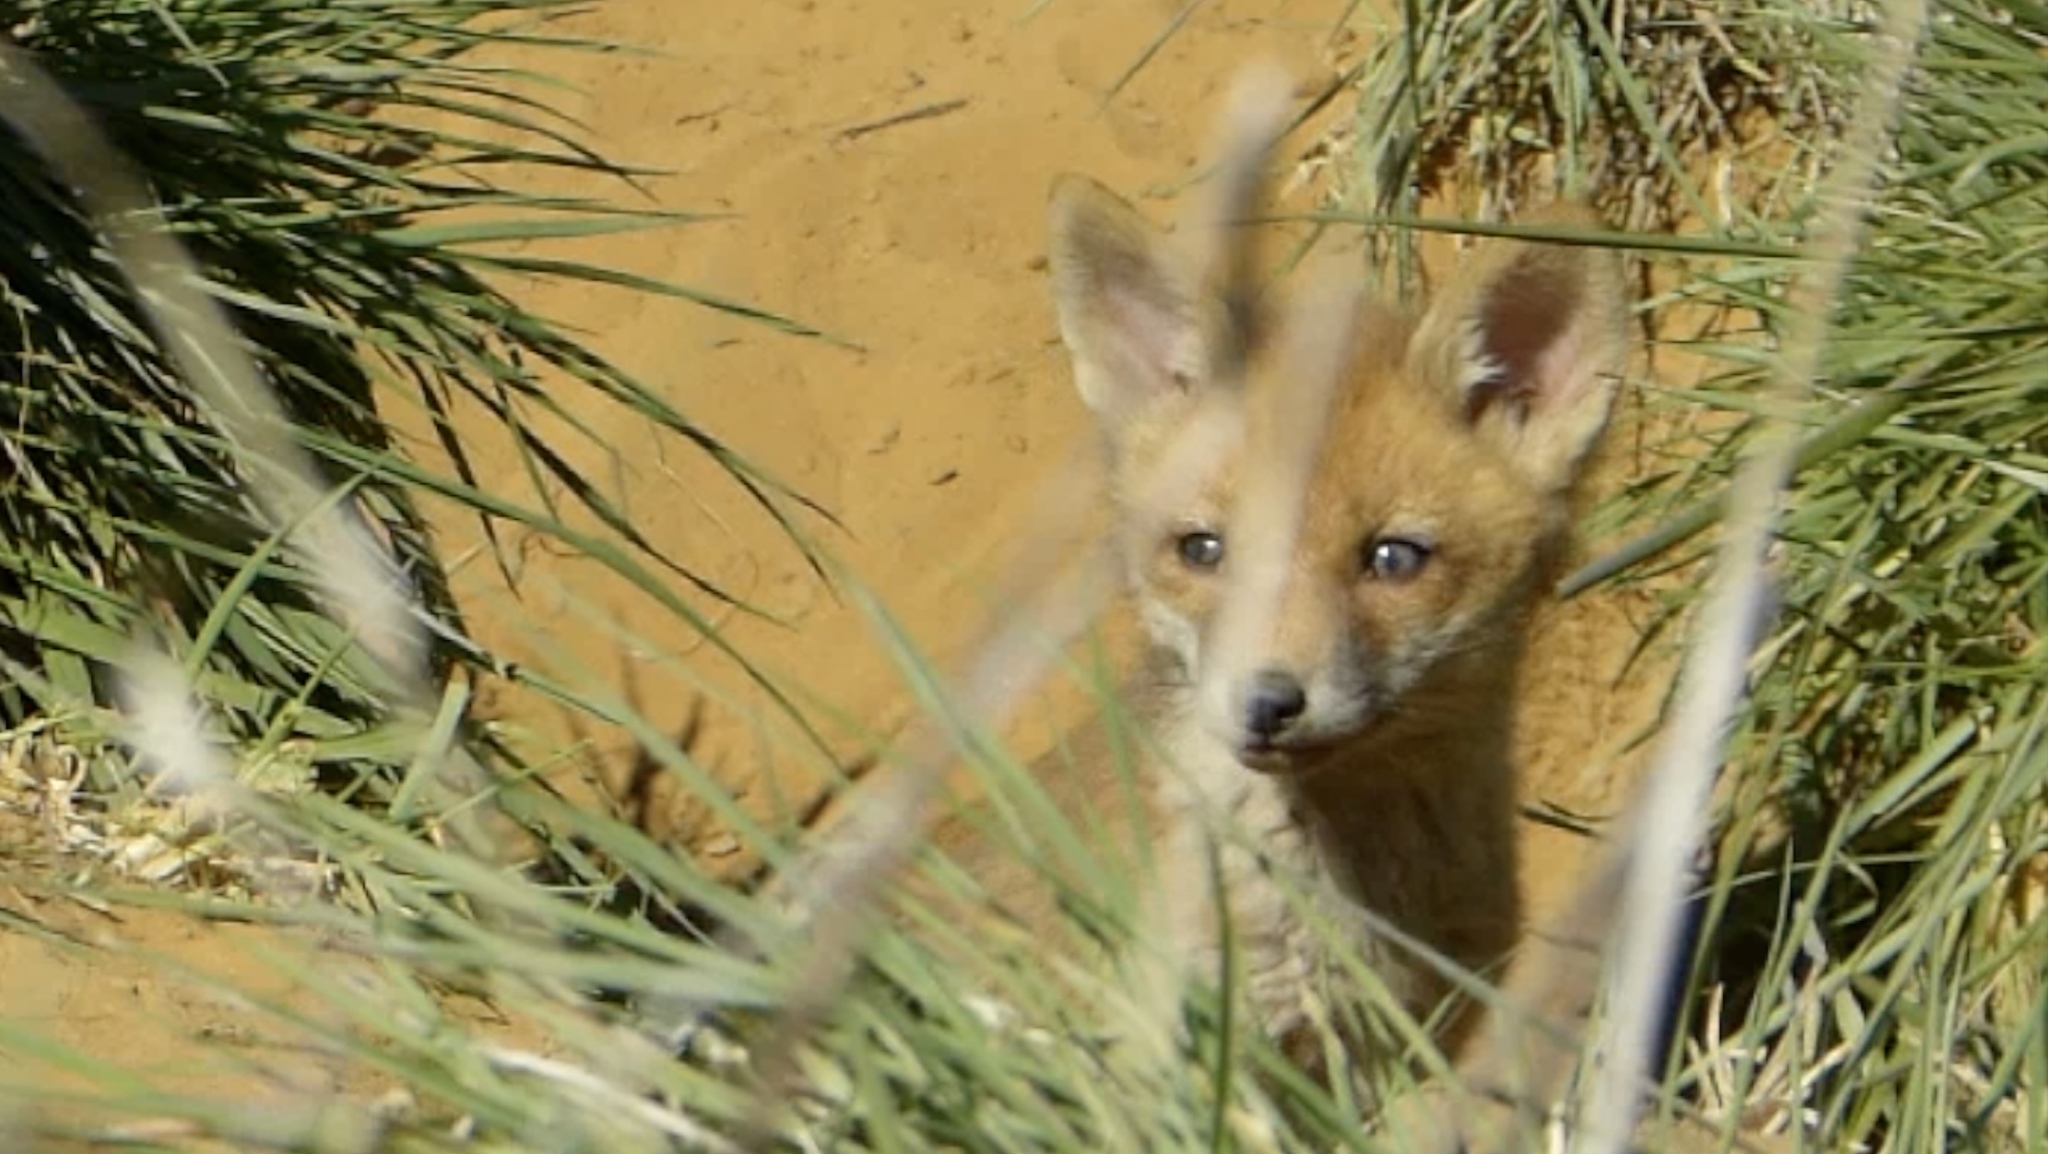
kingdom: Animalia
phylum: Chordata
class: Mammalia
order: Carnivora
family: Canidae
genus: Vulpes
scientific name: Vulpes vulpes
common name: Red fox
